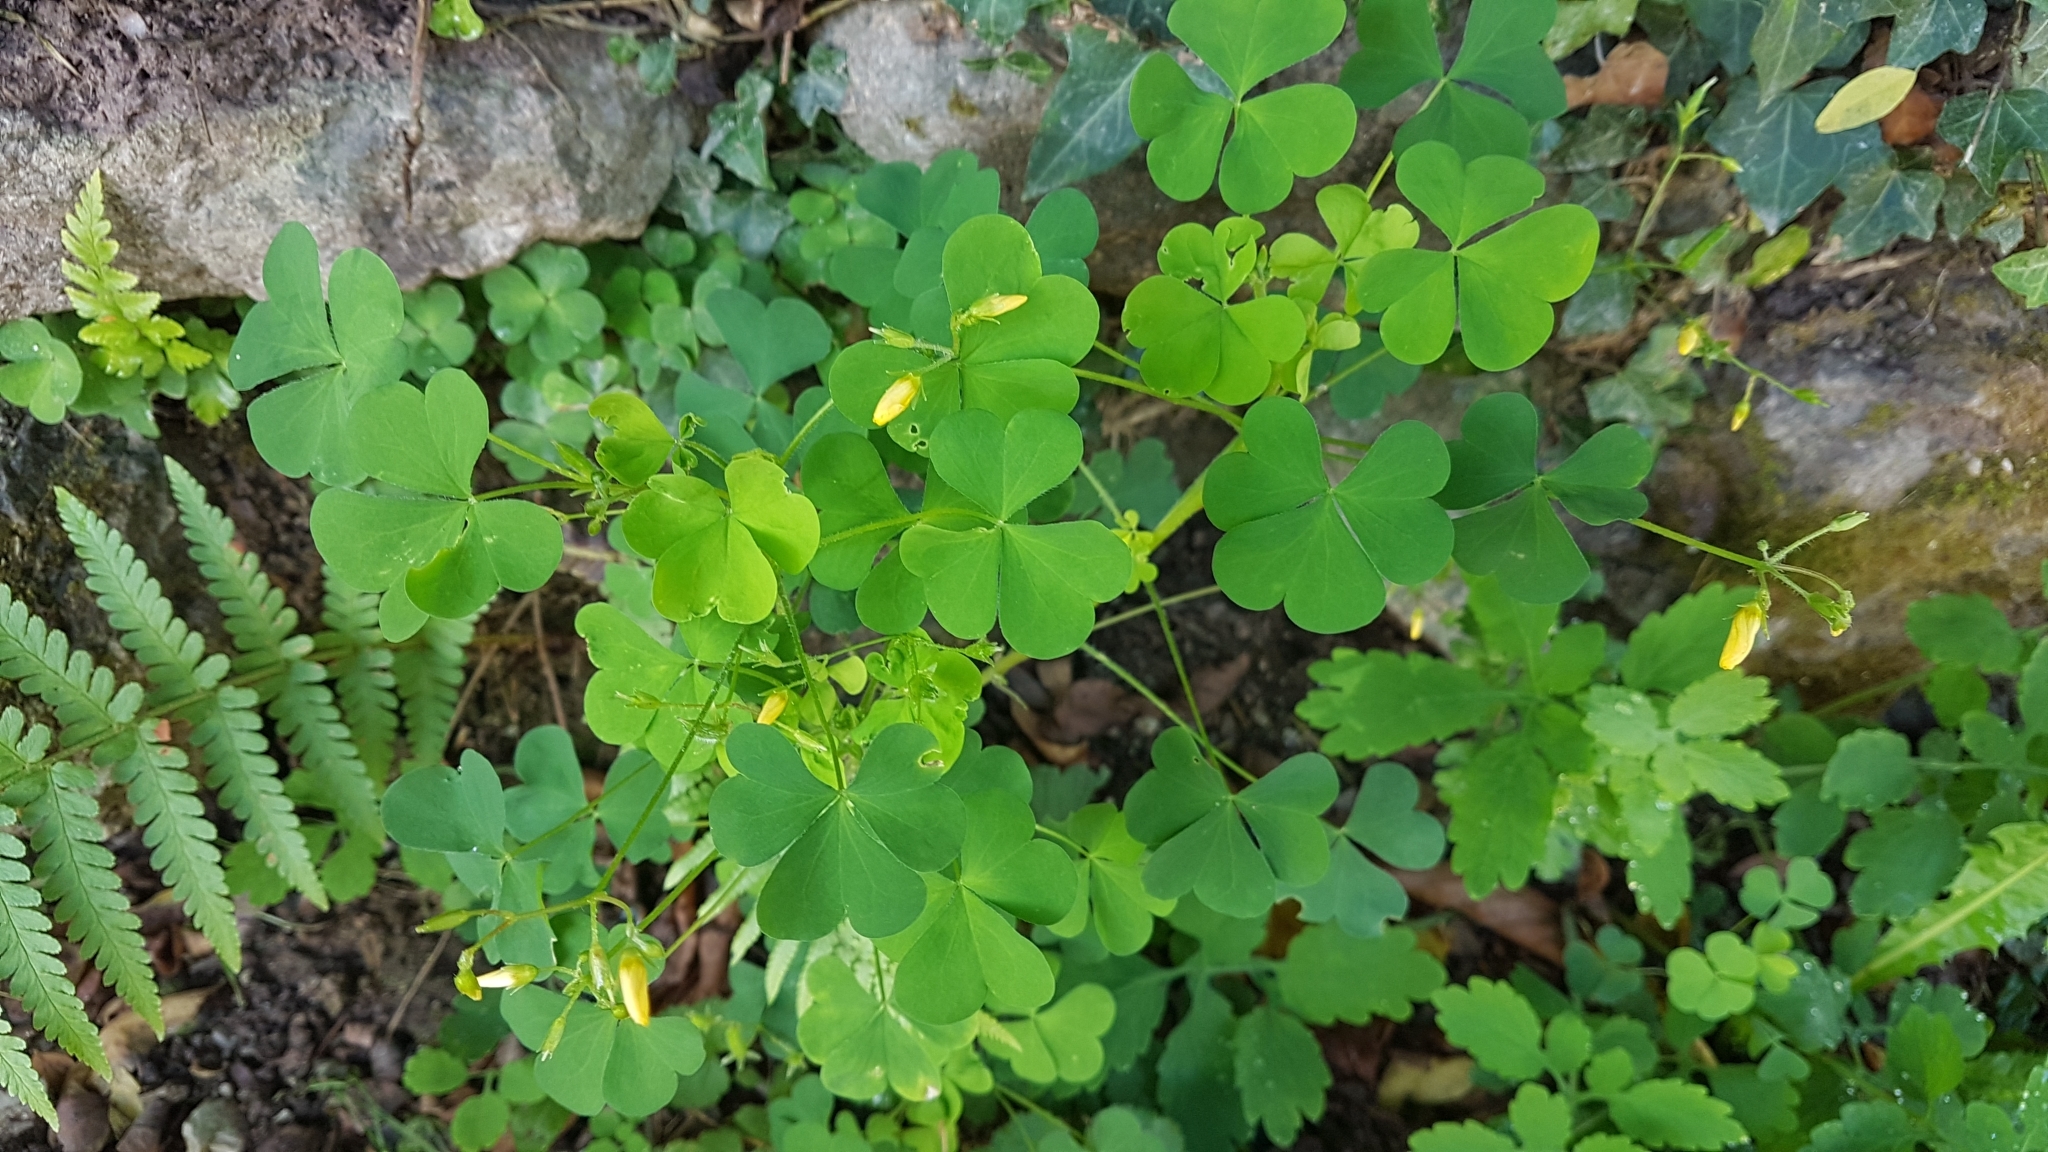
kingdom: Plantae
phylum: Tracheophyta
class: Magnoliopsida
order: Oxalidales
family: Oxalidaceae
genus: Oxalis
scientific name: Oxalis stricta
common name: Upright yellow-sorrel
